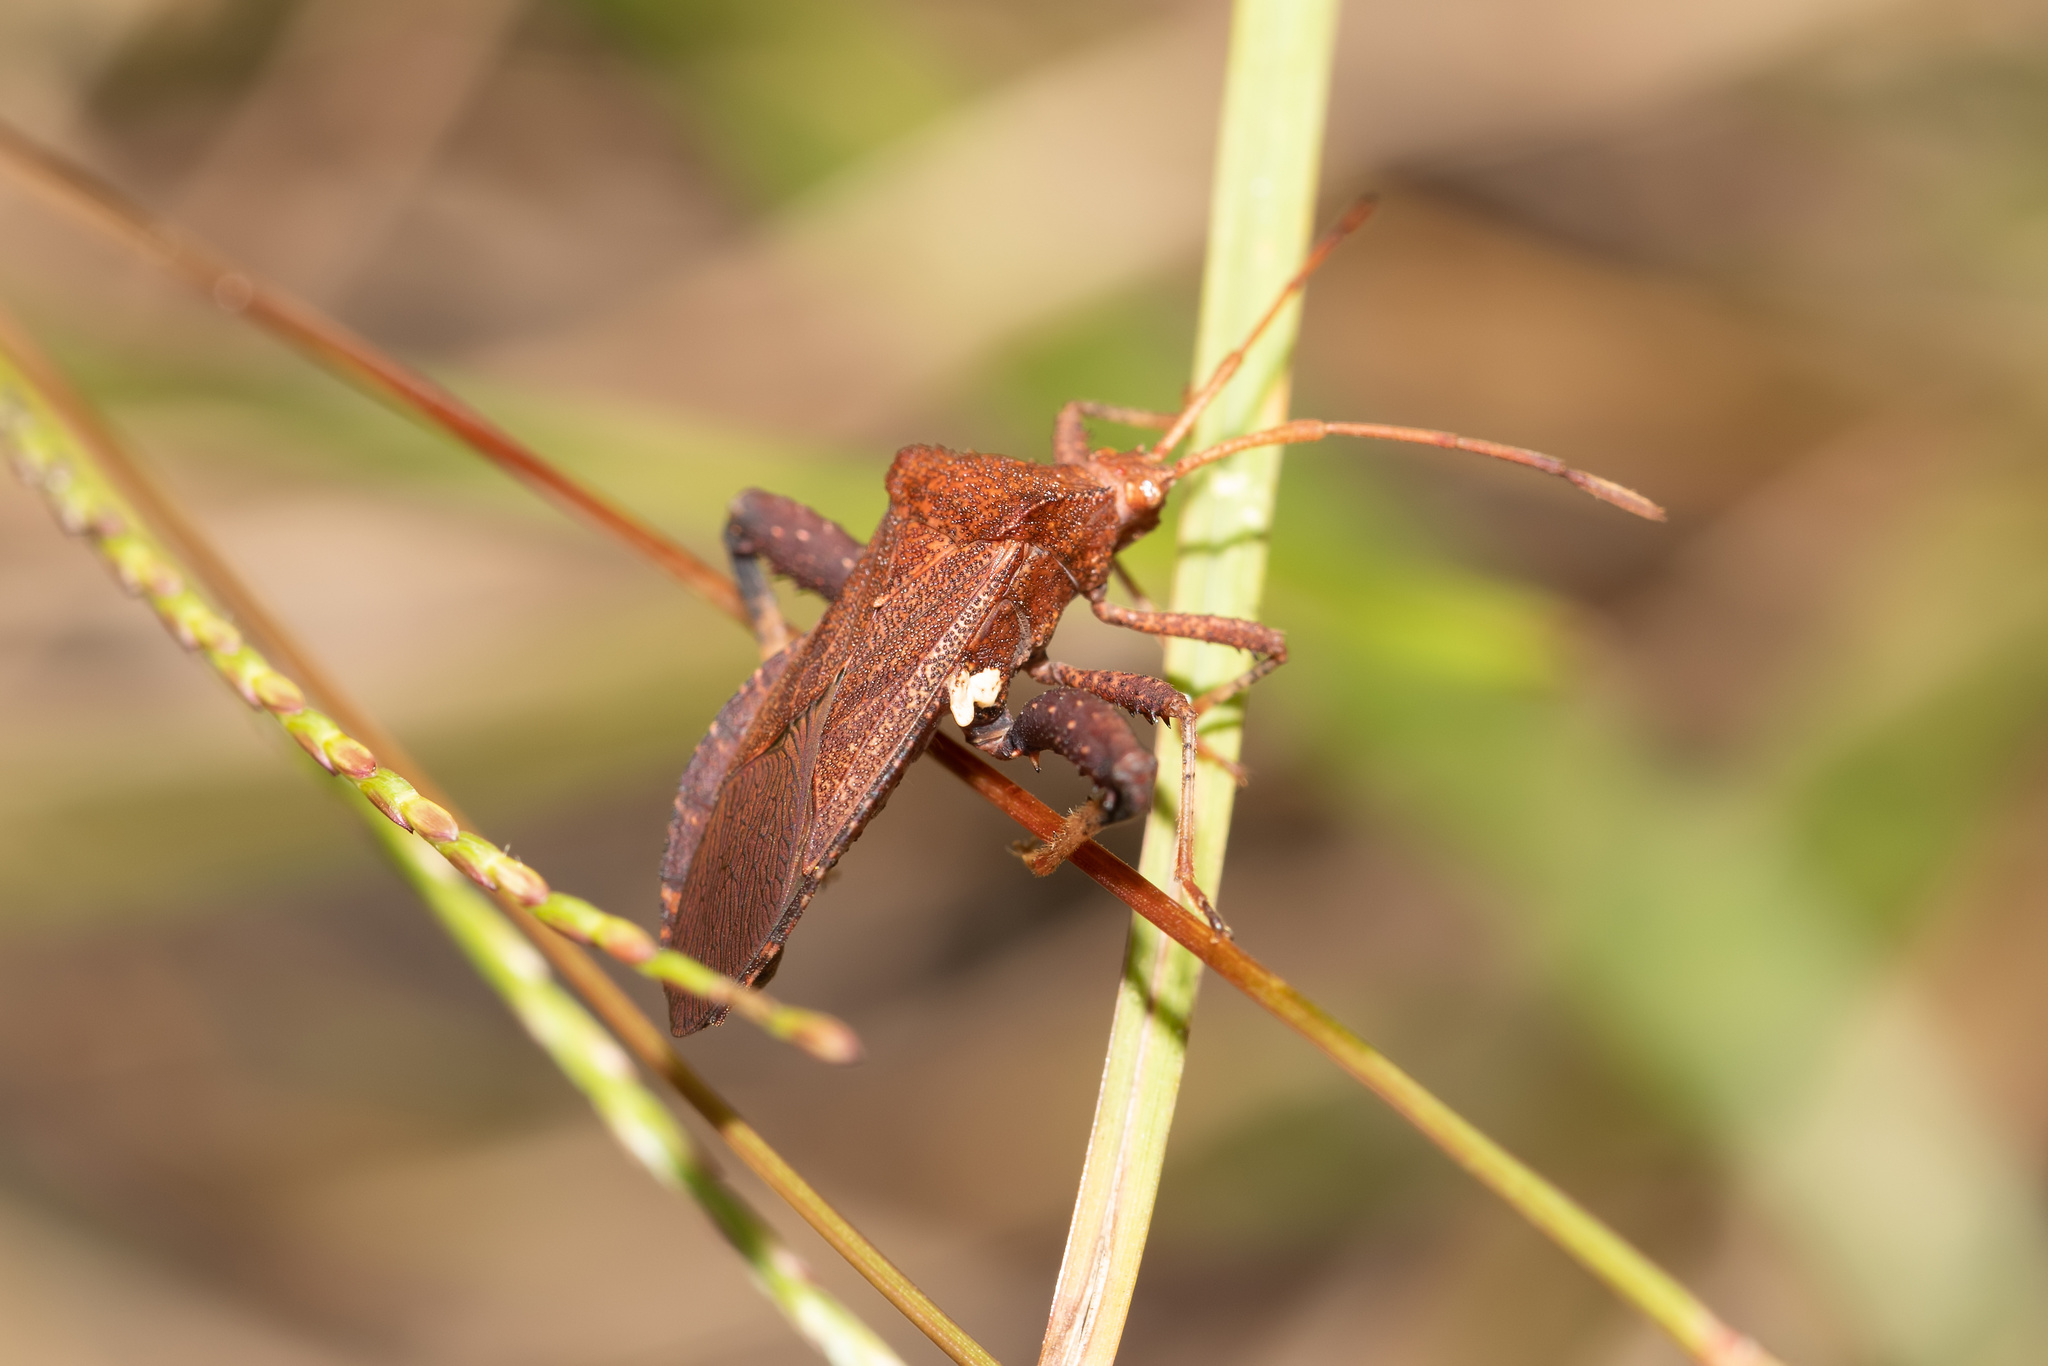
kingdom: Animalia
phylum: Arthropoda
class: Insecta
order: Hemiptera
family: Coreidae
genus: Euthochtha
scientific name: Euthochtha galeator
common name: Helmeted squash bug
